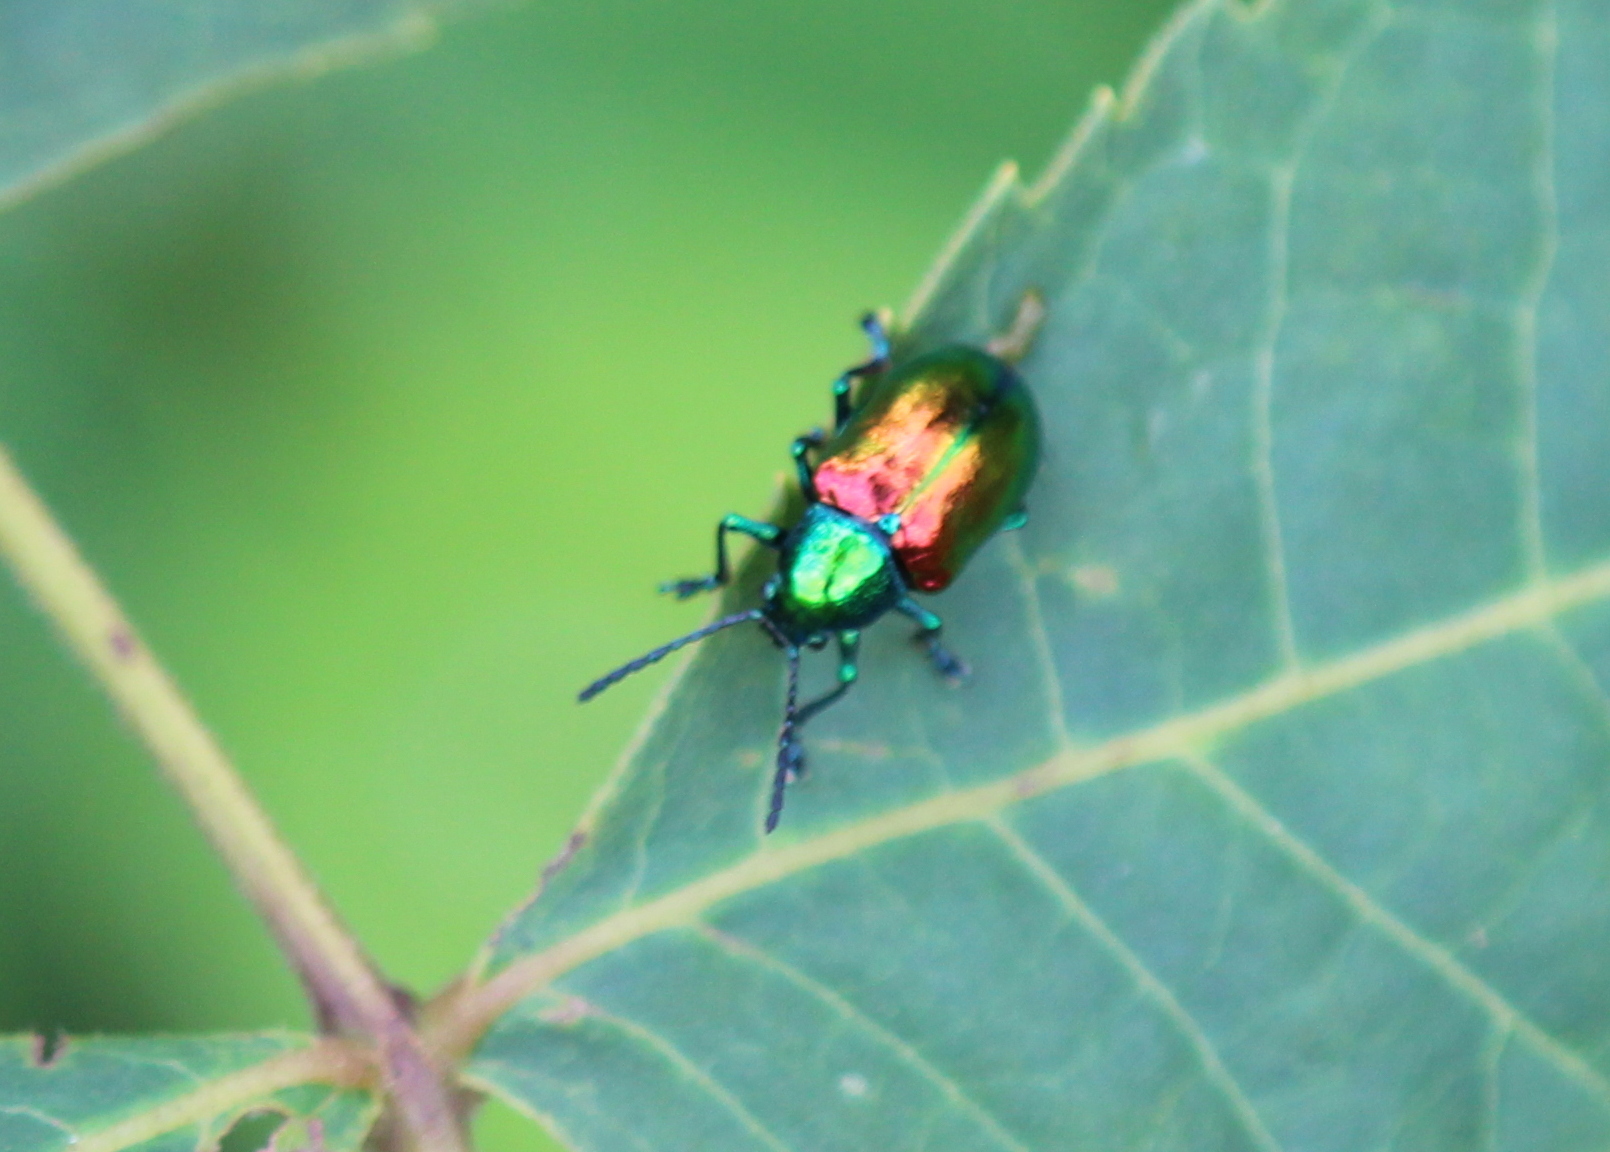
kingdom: Animalia
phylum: Arthropoda
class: Insecta
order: Coleoptera
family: Chrysomelidae
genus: Chrysochus
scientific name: Chrysochus auratus
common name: Dogbane leaf beetle
